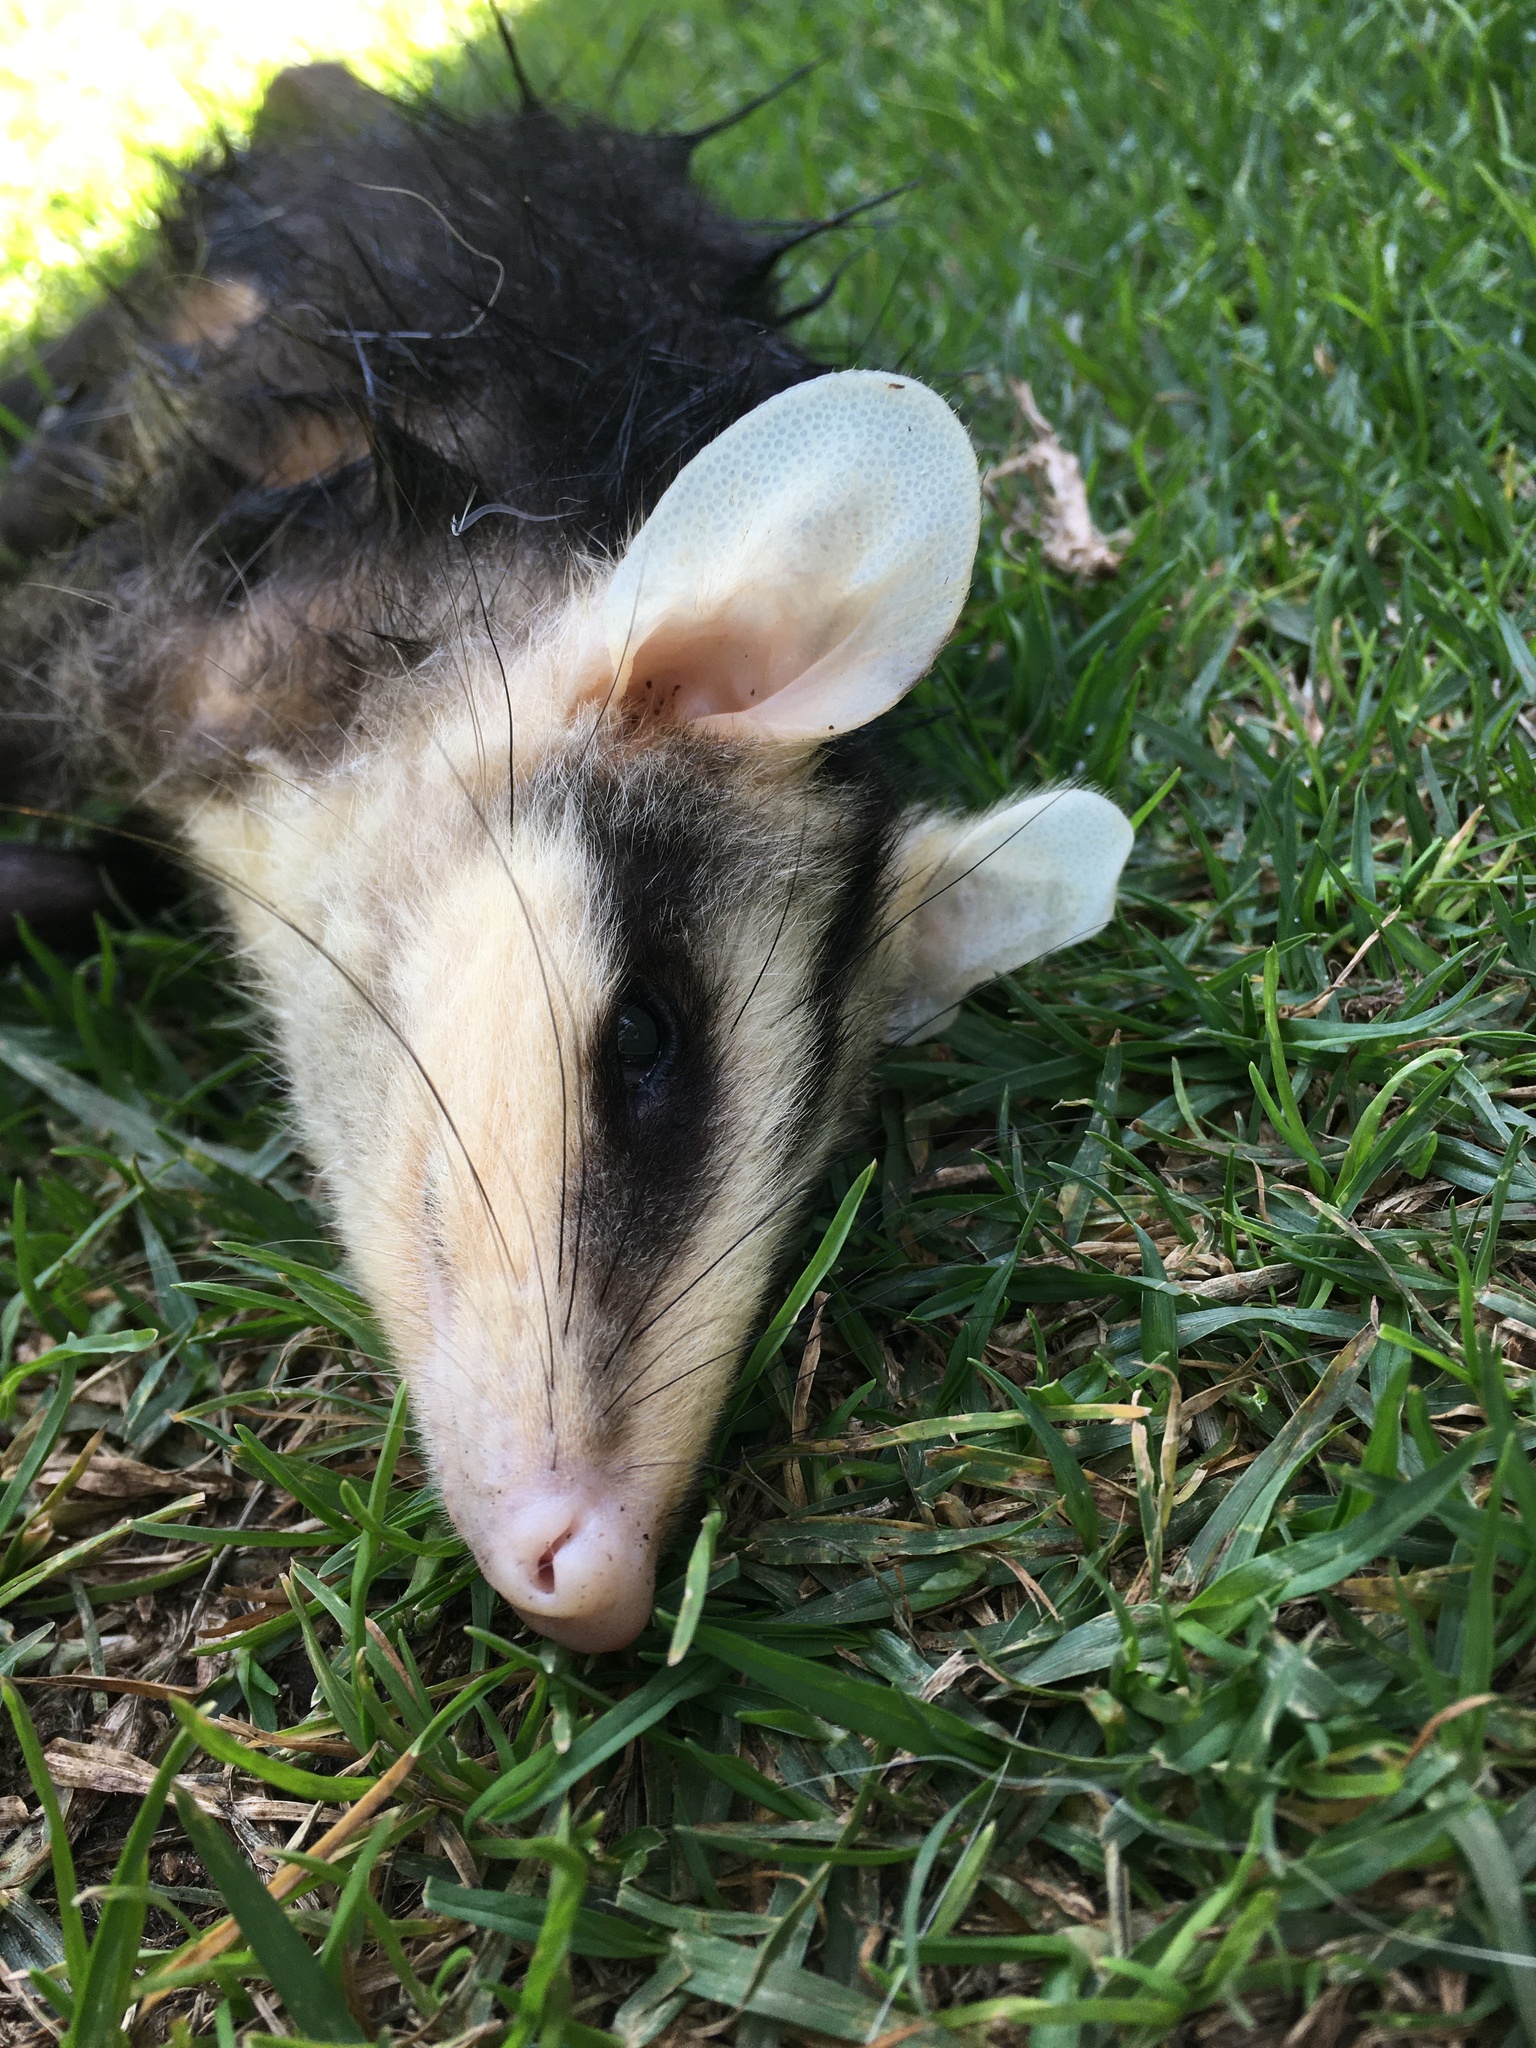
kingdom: Animalia
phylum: Chordata
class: Mammalia
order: Didelphimorphia
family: Didelphidae
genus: Didelphis
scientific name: Didelphis pernigra
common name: Andean white-eared opossum
